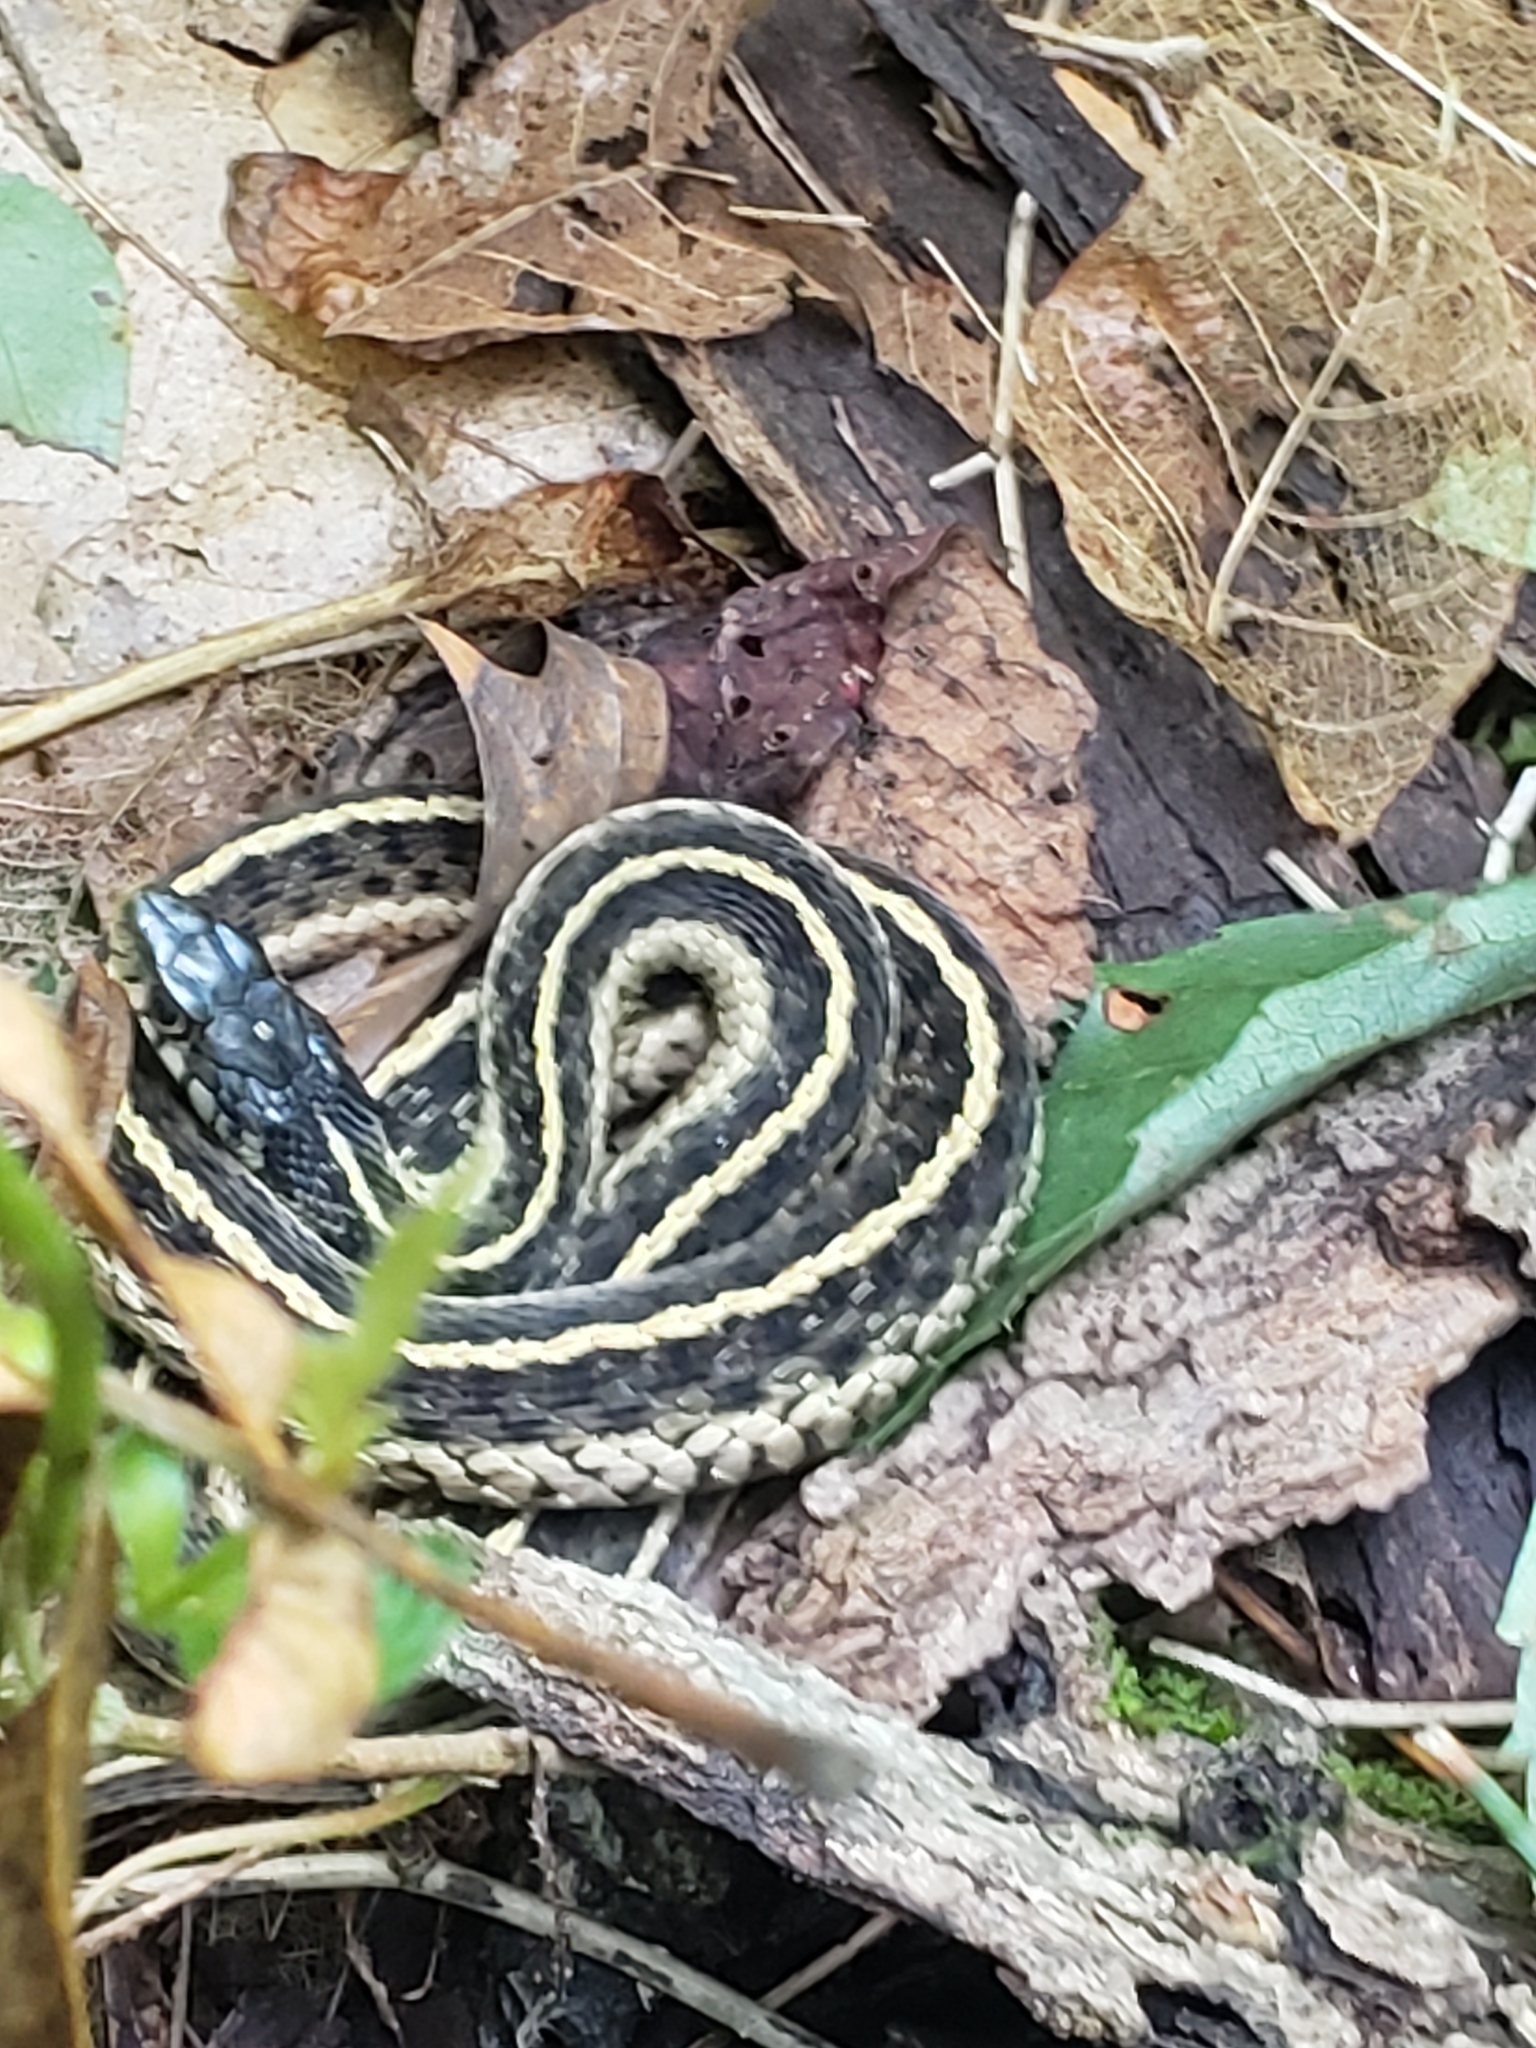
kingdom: Animalia
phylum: Chordata
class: Squamata
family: Colubridae
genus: Thamnophis
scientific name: Thamnophis sirtalis
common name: Common garter snake
